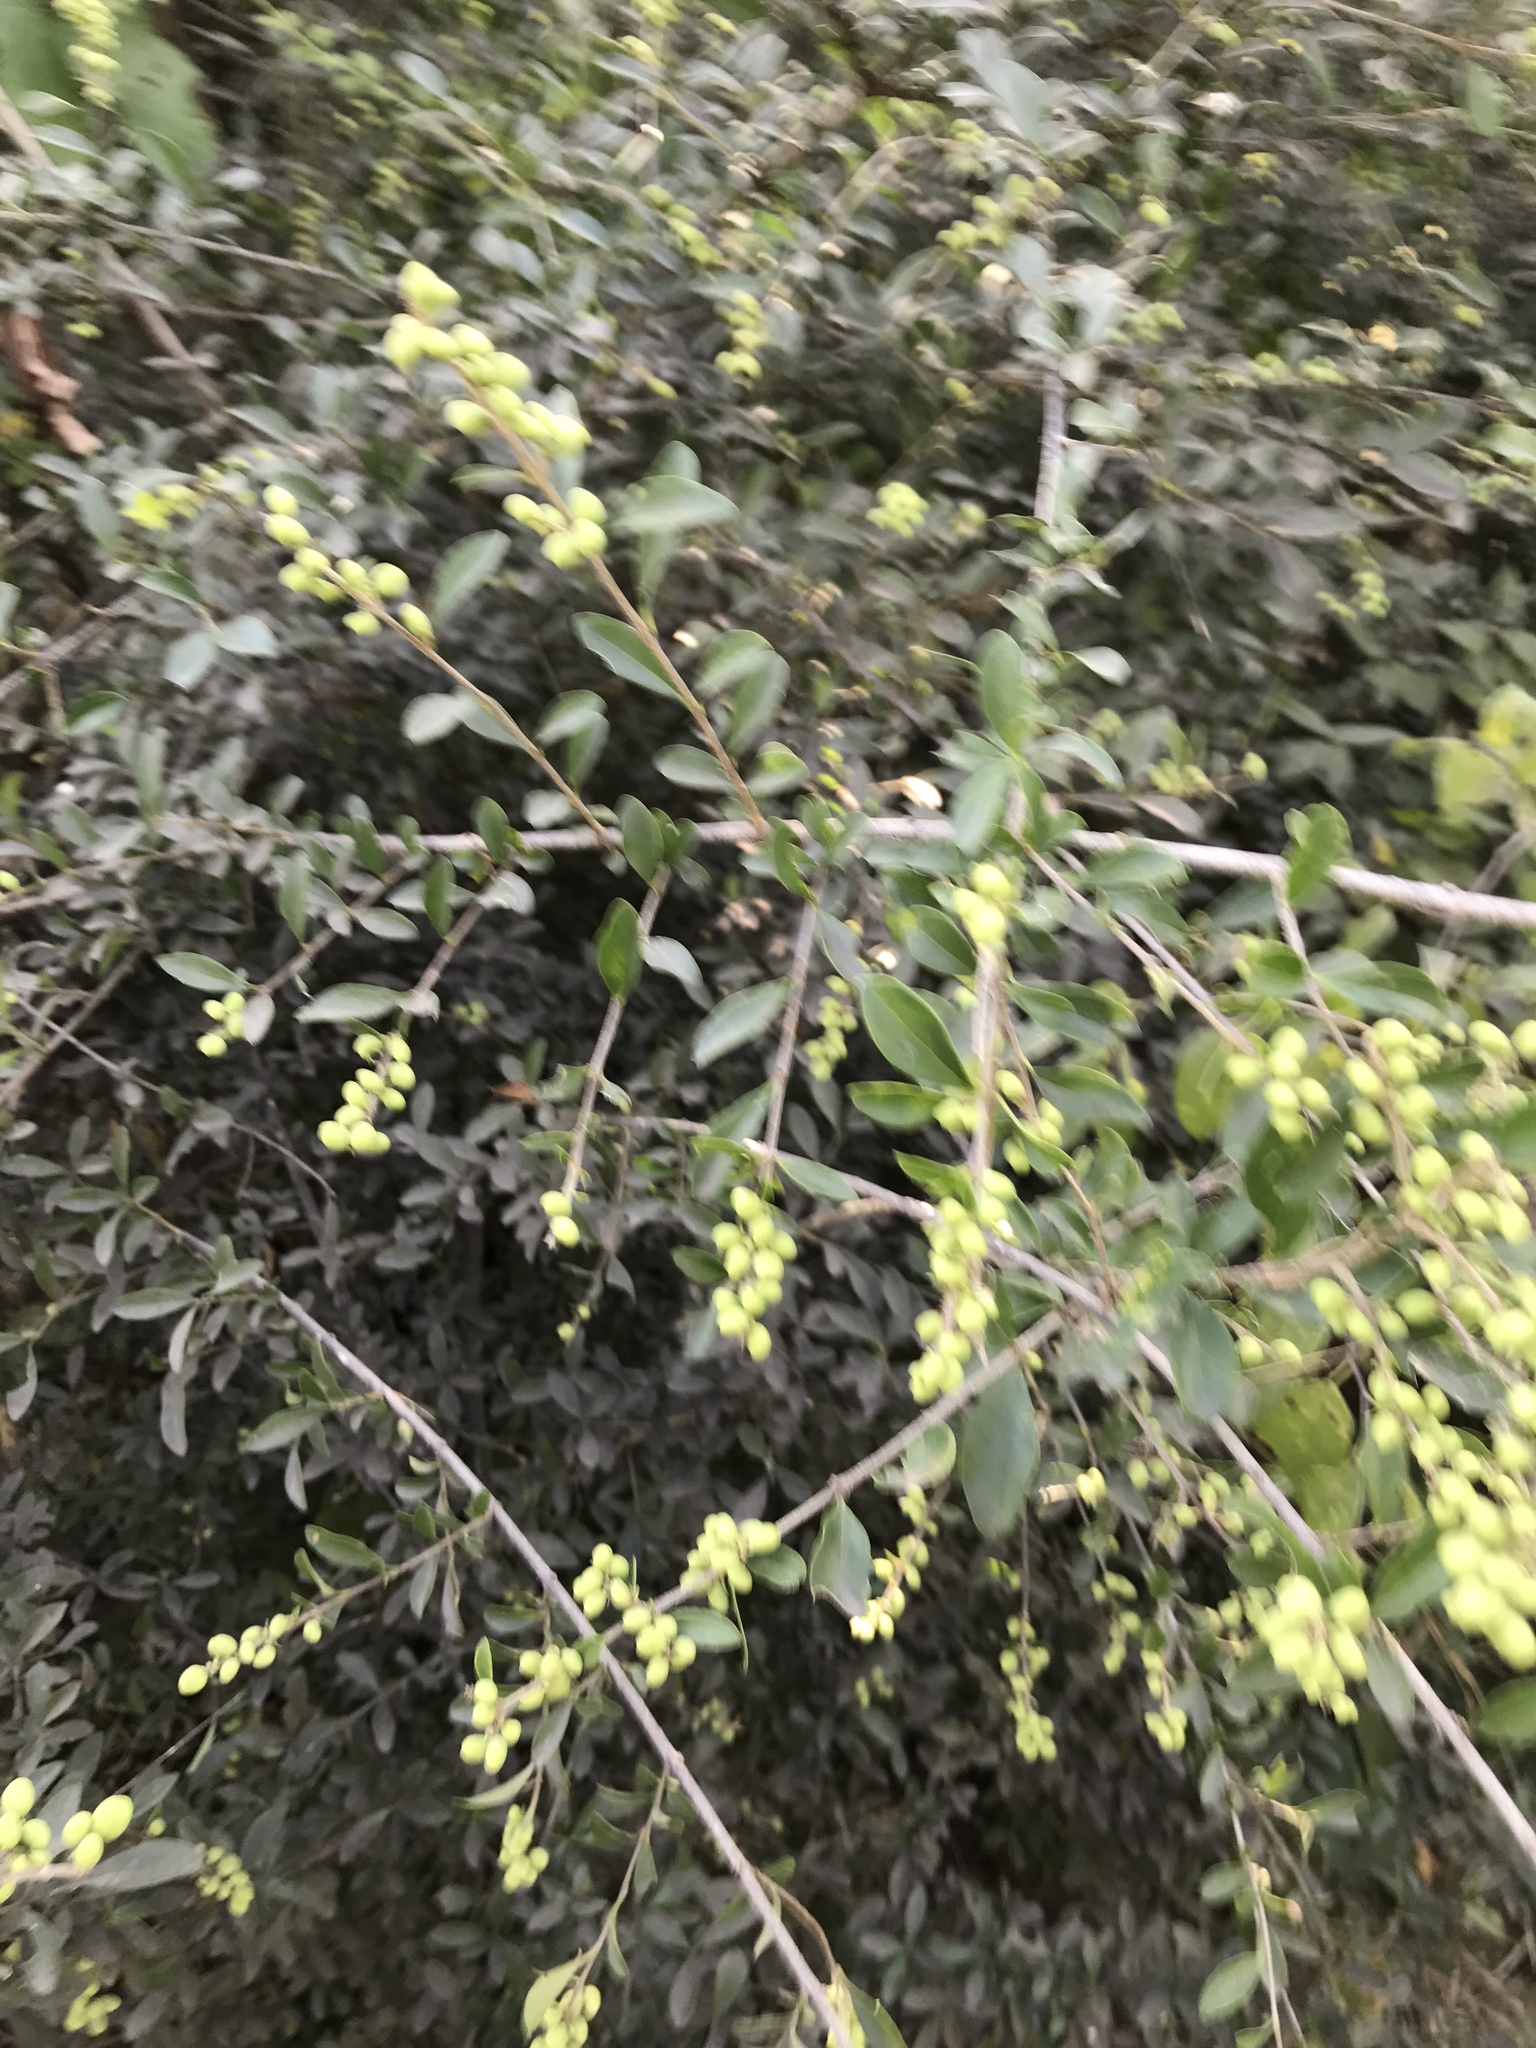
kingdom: Plantae
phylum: Tracheophyta
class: Magnoliopsida
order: Lamiales
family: Oleaceae
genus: Ligustrum
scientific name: Ligustrum quihoui
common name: Waxyleaf privet
